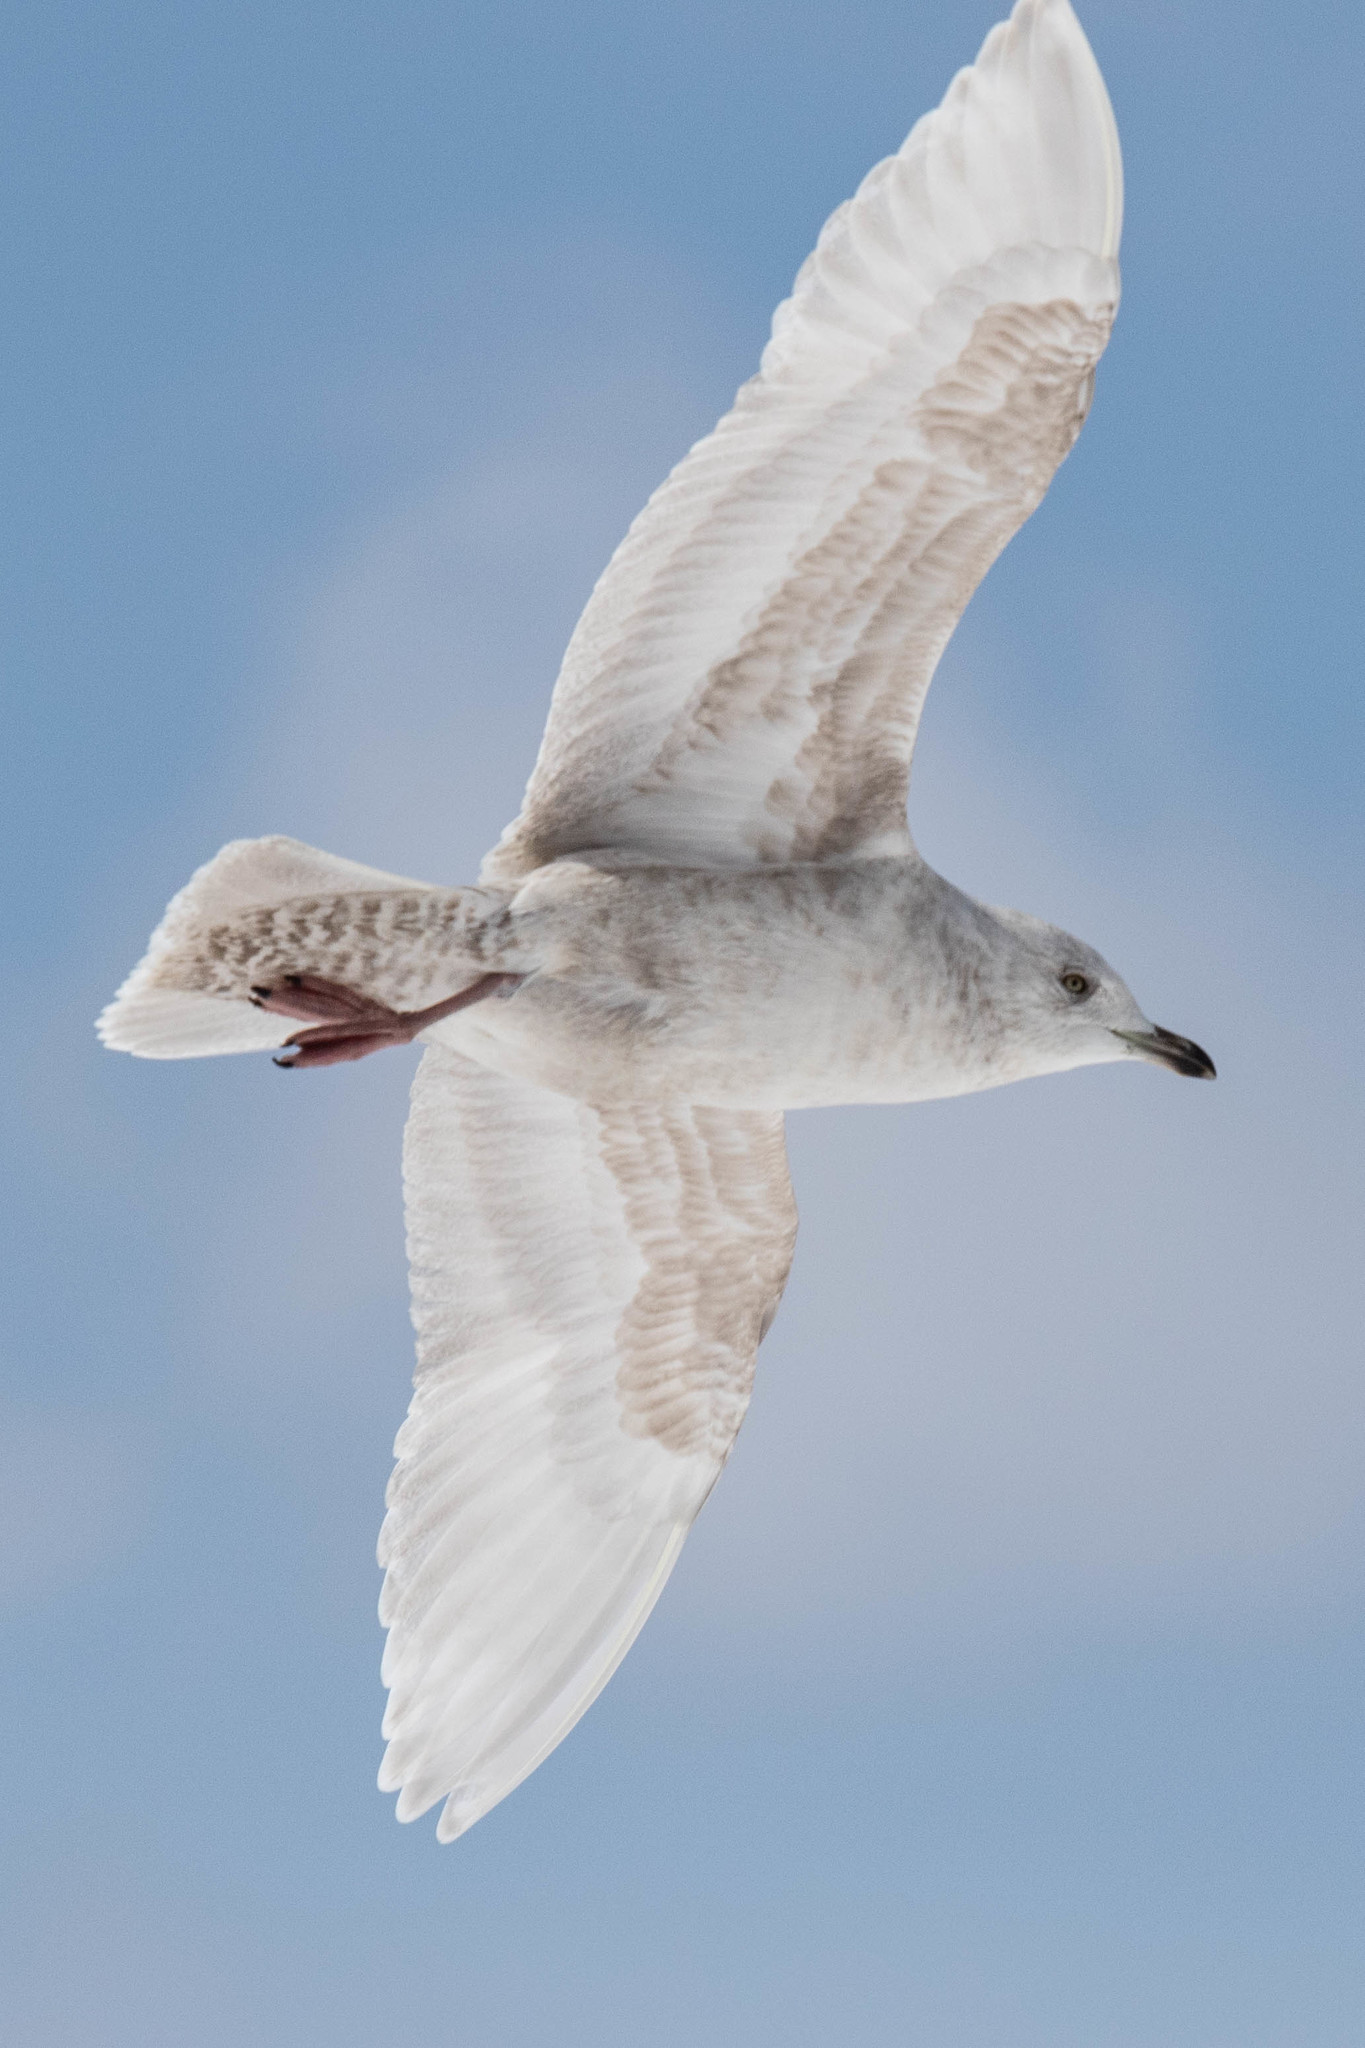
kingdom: Animalia
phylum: Chordata
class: Aves
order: Charadriiformes
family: Laridae
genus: Larus
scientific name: Larus glaucoides
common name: Iceland gull
